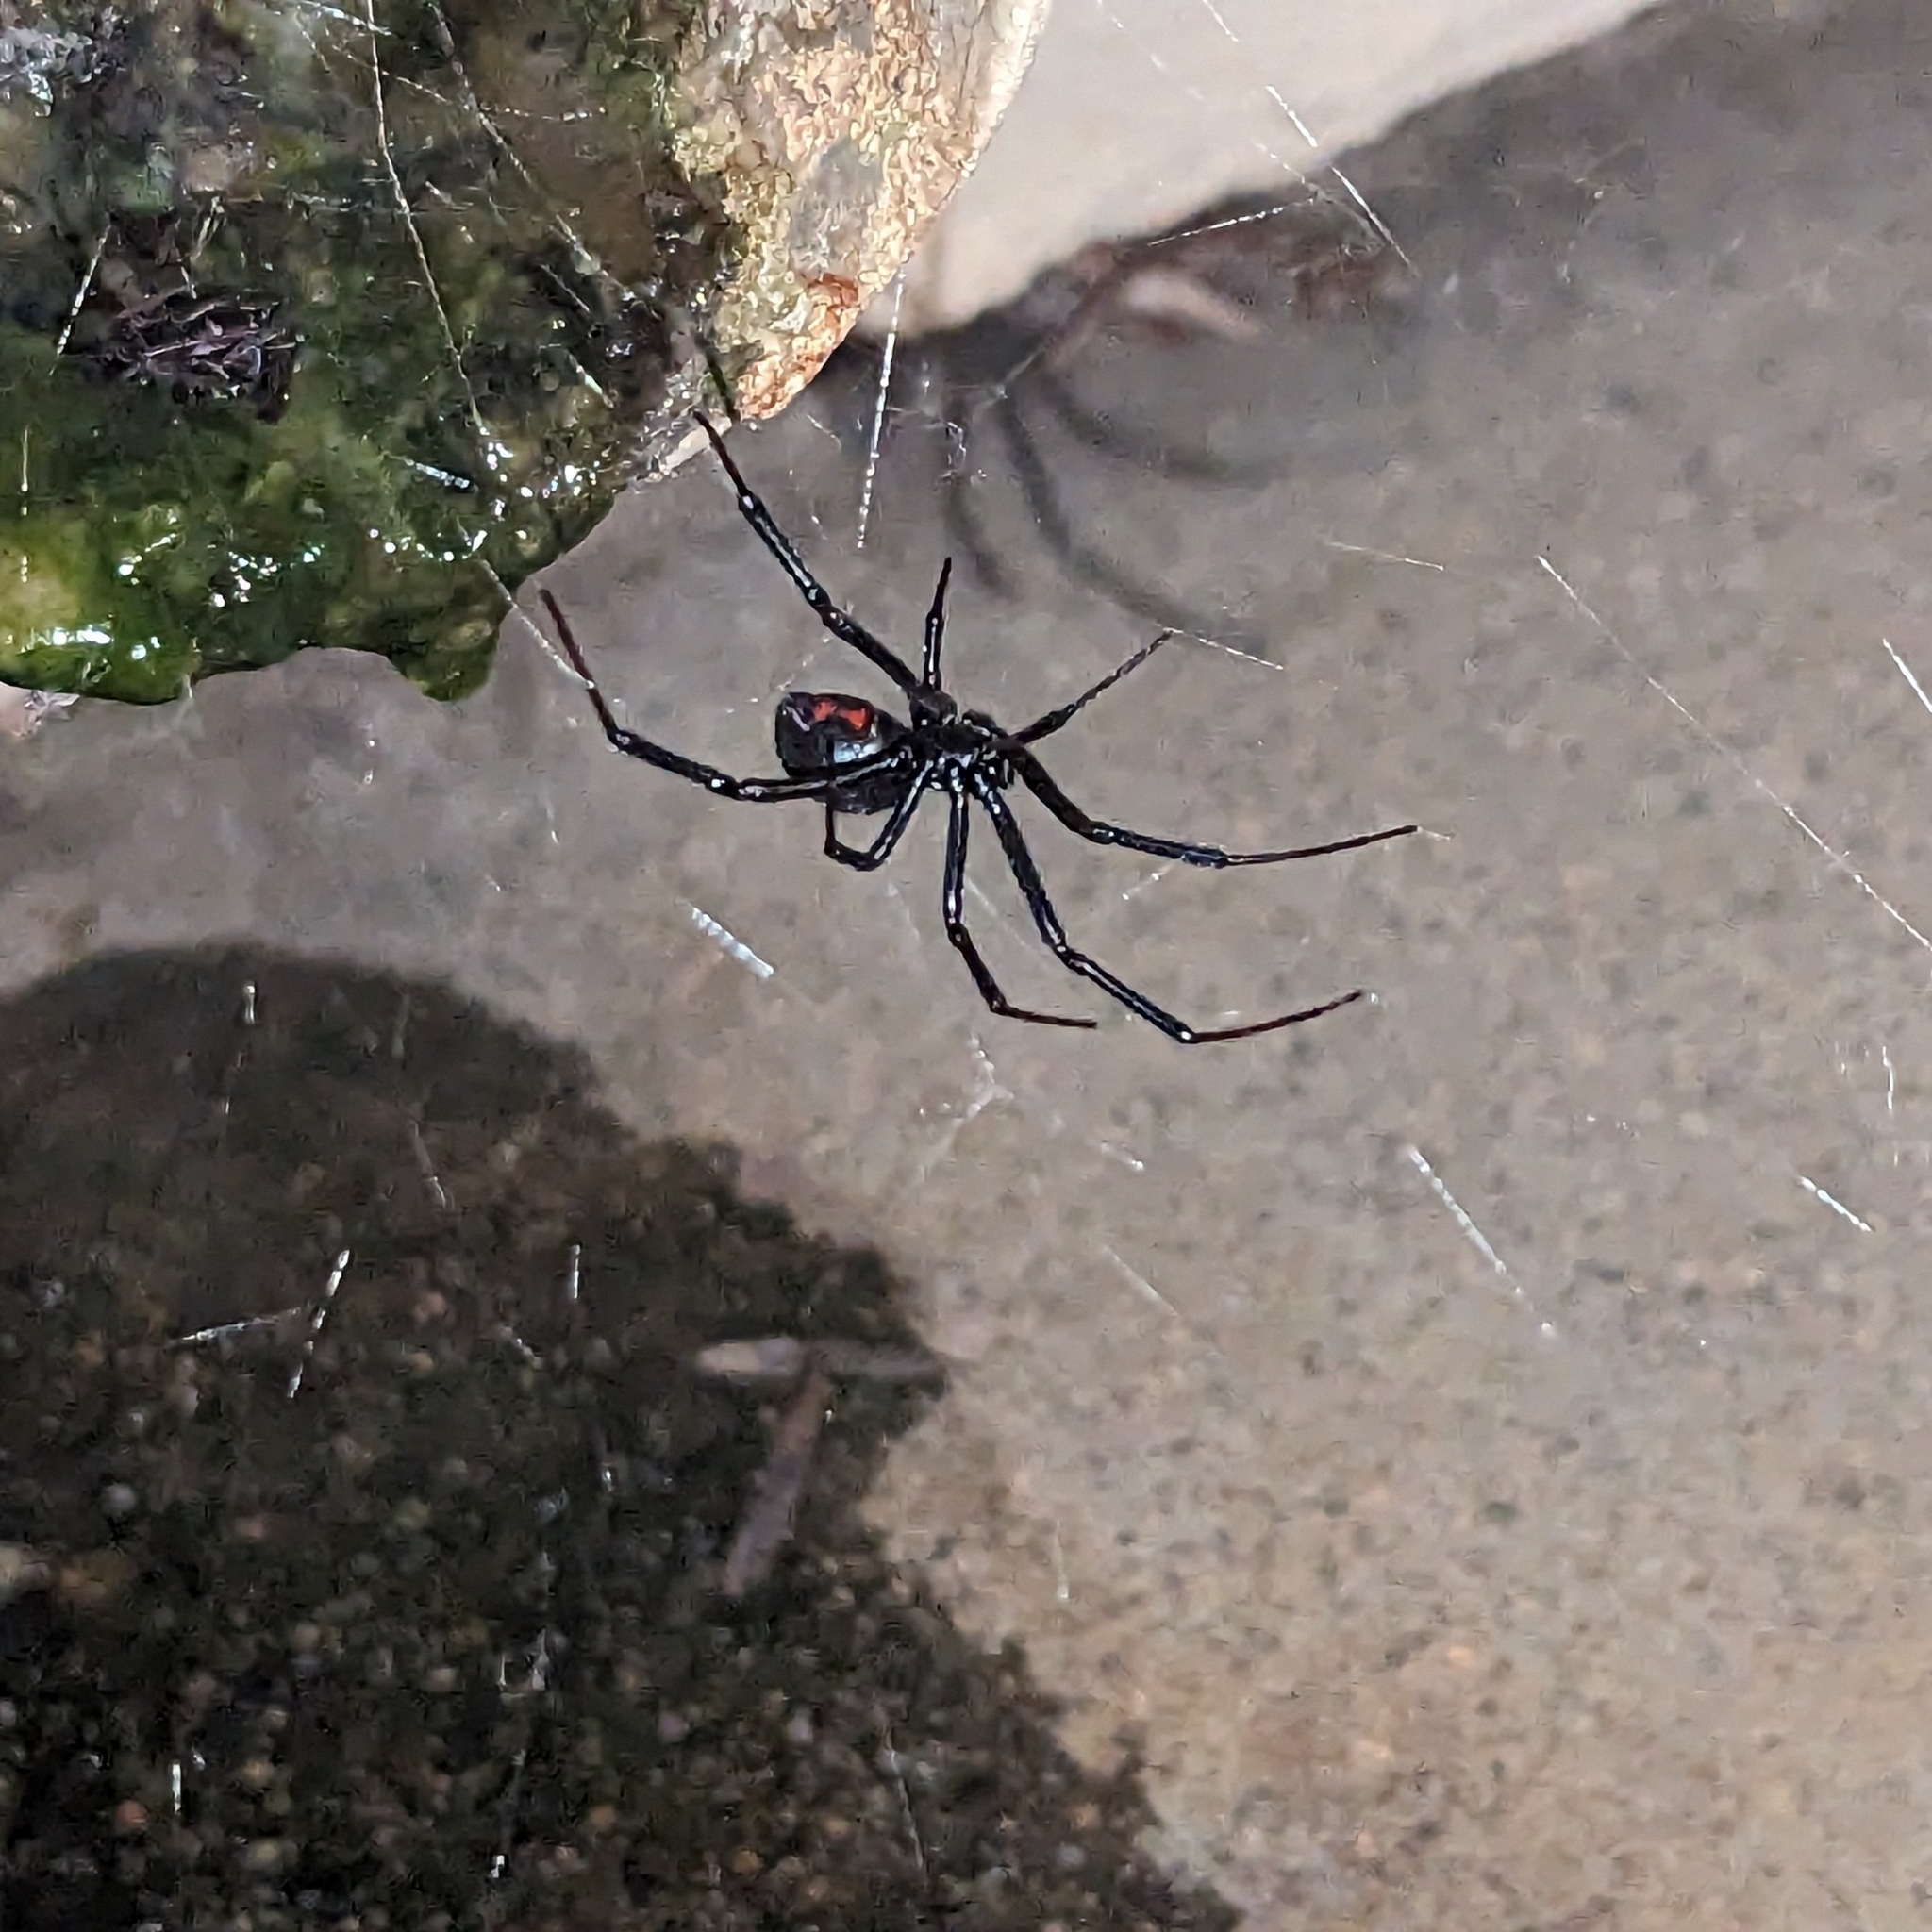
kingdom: Animalia
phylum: Arthropoda
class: Arachnida
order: Araneae
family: Theridiidae
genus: Latrodectus
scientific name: Latrodectus hesperus
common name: Western black widow
